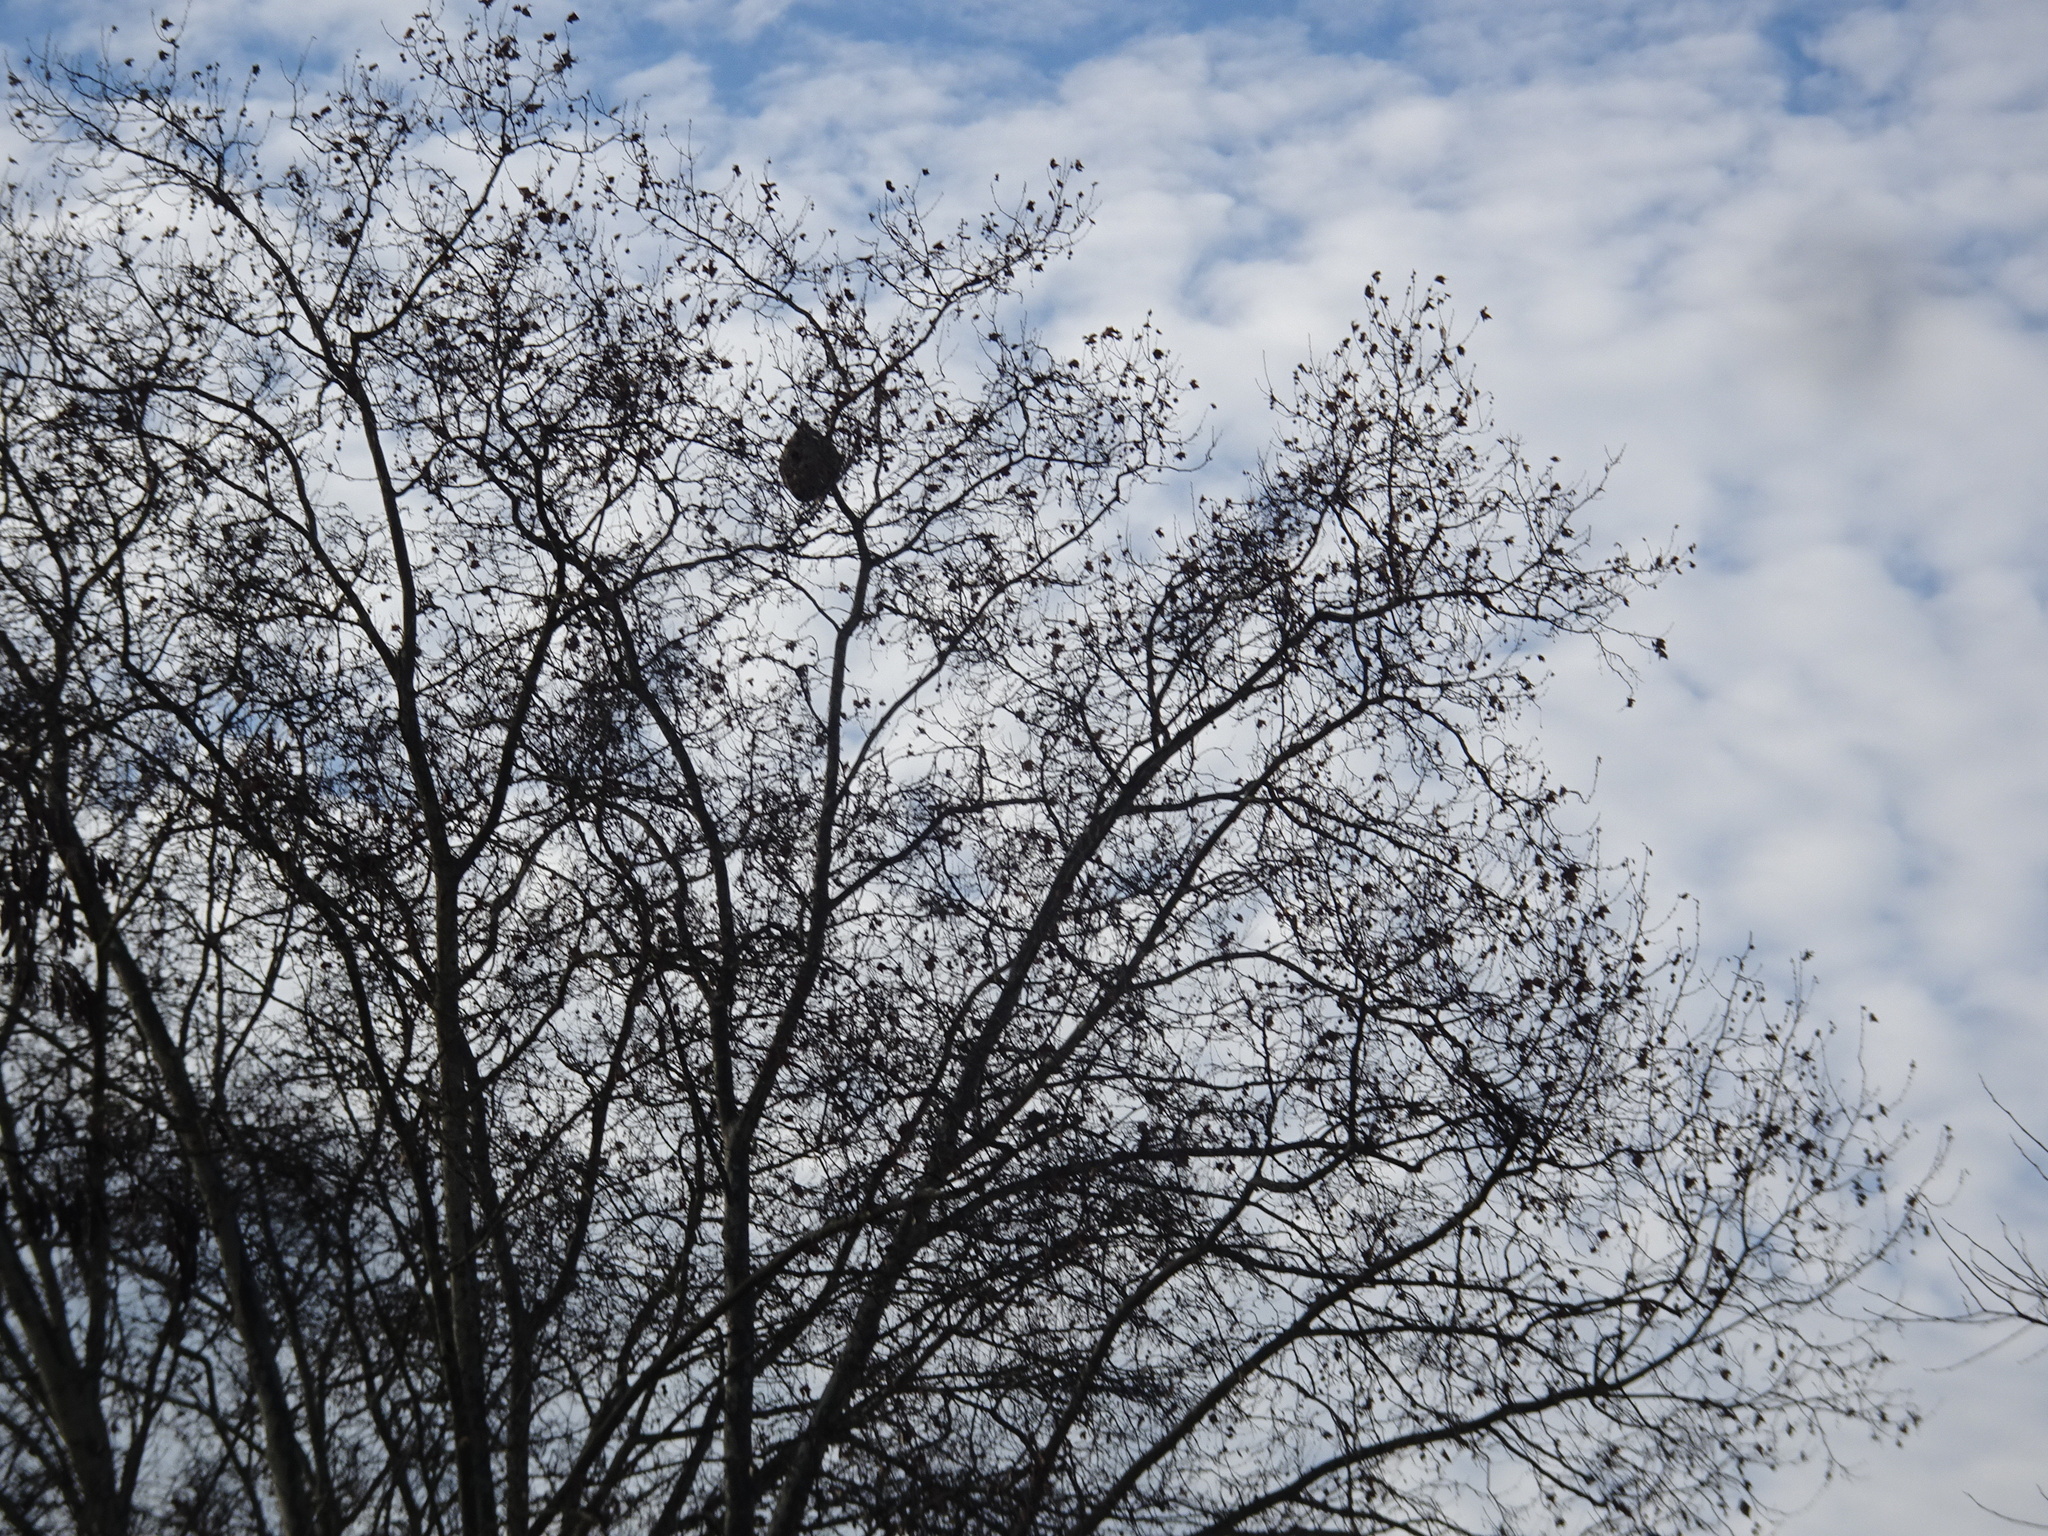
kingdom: Animalia
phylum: Arthropoda
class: Insecta
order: Hymenoptera
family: Vespidae
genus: Vespa
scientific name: Vespa velutina
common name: Asian hornet
